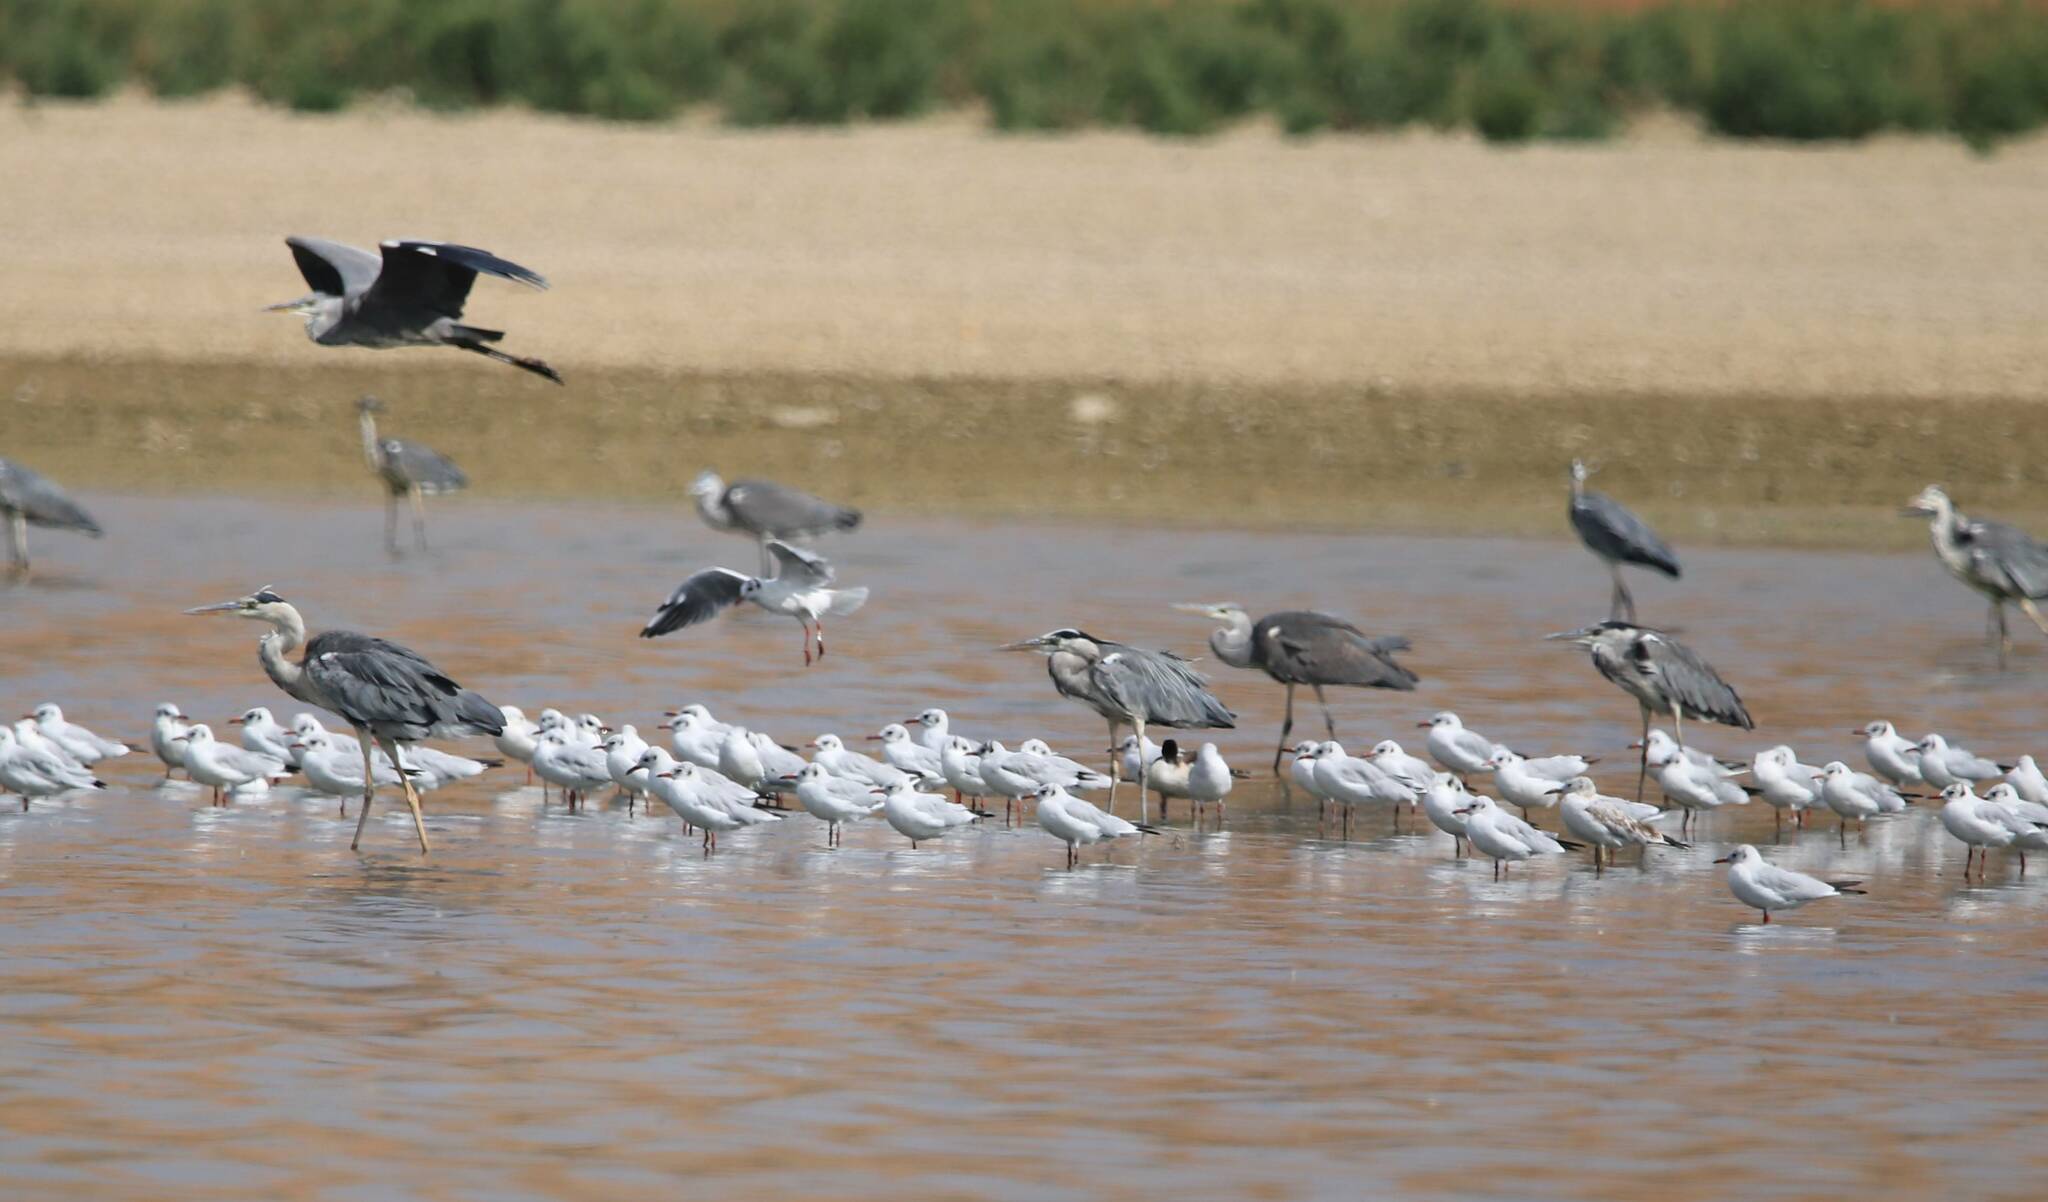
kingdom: Animalia
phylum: Chordata
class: Aves
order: Pelecaniformes
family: Ardeidae
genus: Ardea
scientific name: Ardea cinerea
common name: Grey heron
